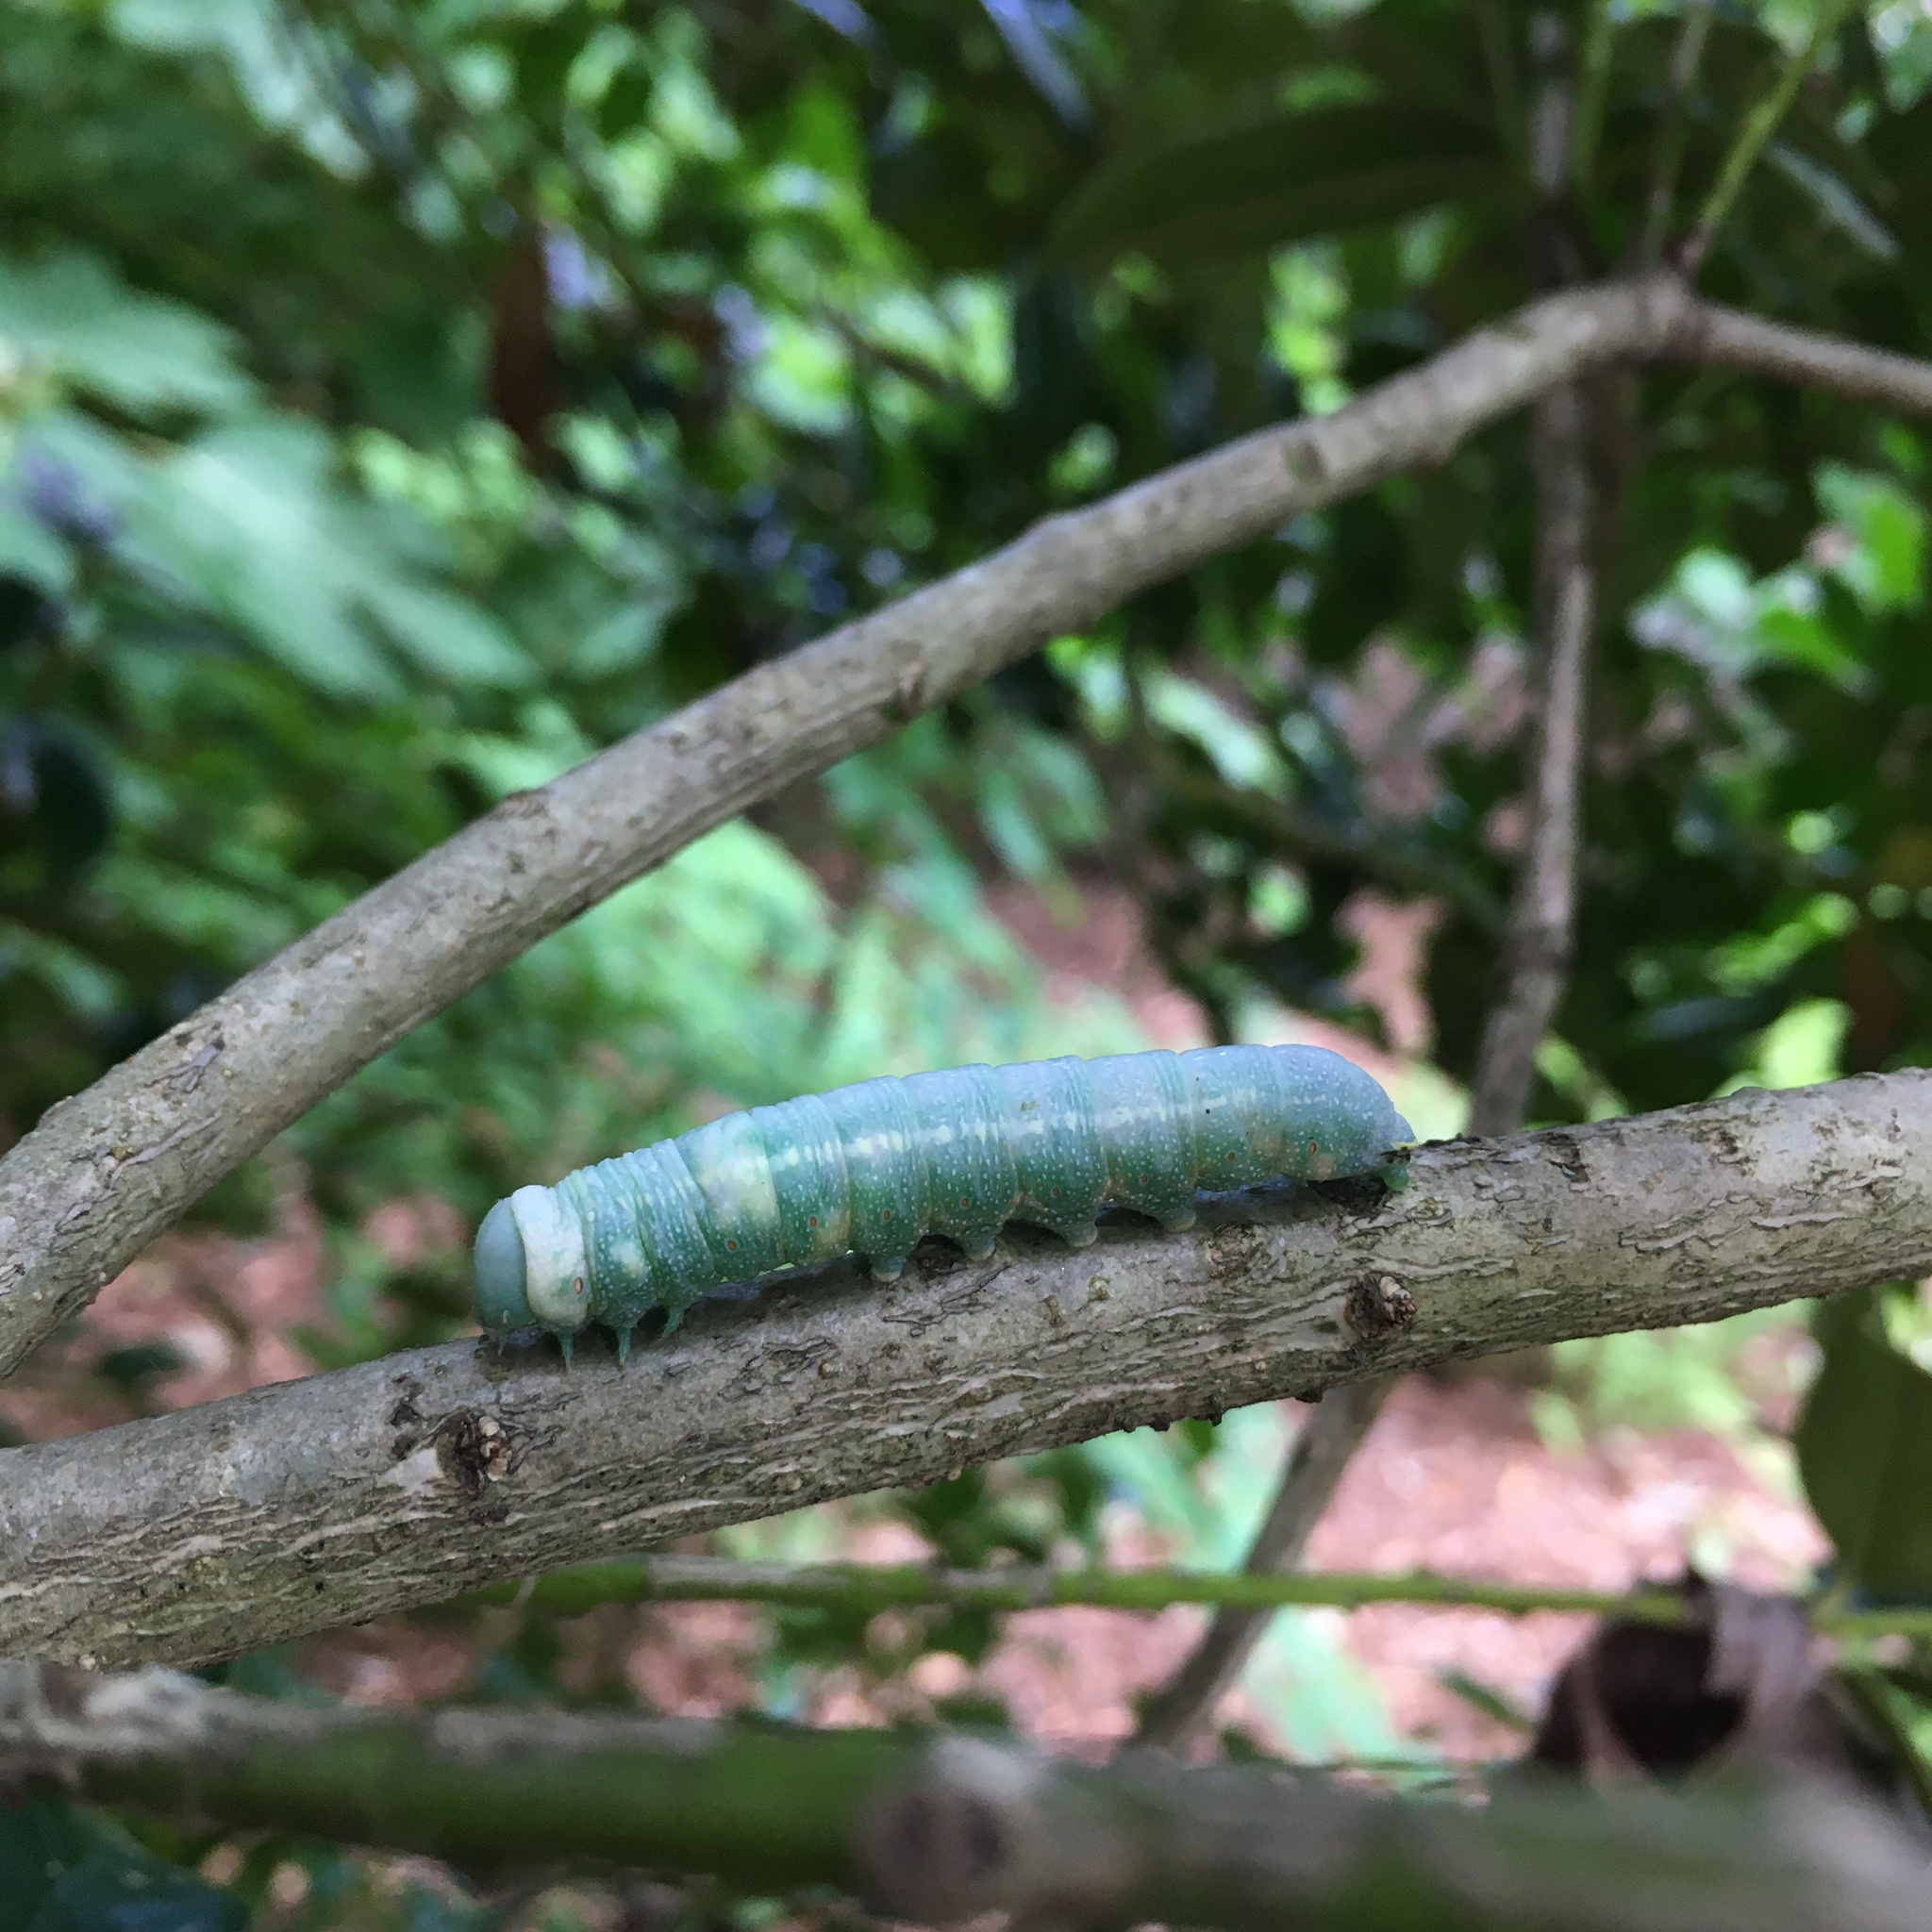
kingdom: Animalia
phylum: Arthropoda
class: Insecta
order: Lepidoptera
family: Notodontidae
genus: Nadata
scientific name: Nadata gibbosa
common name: White-dotted prominent
